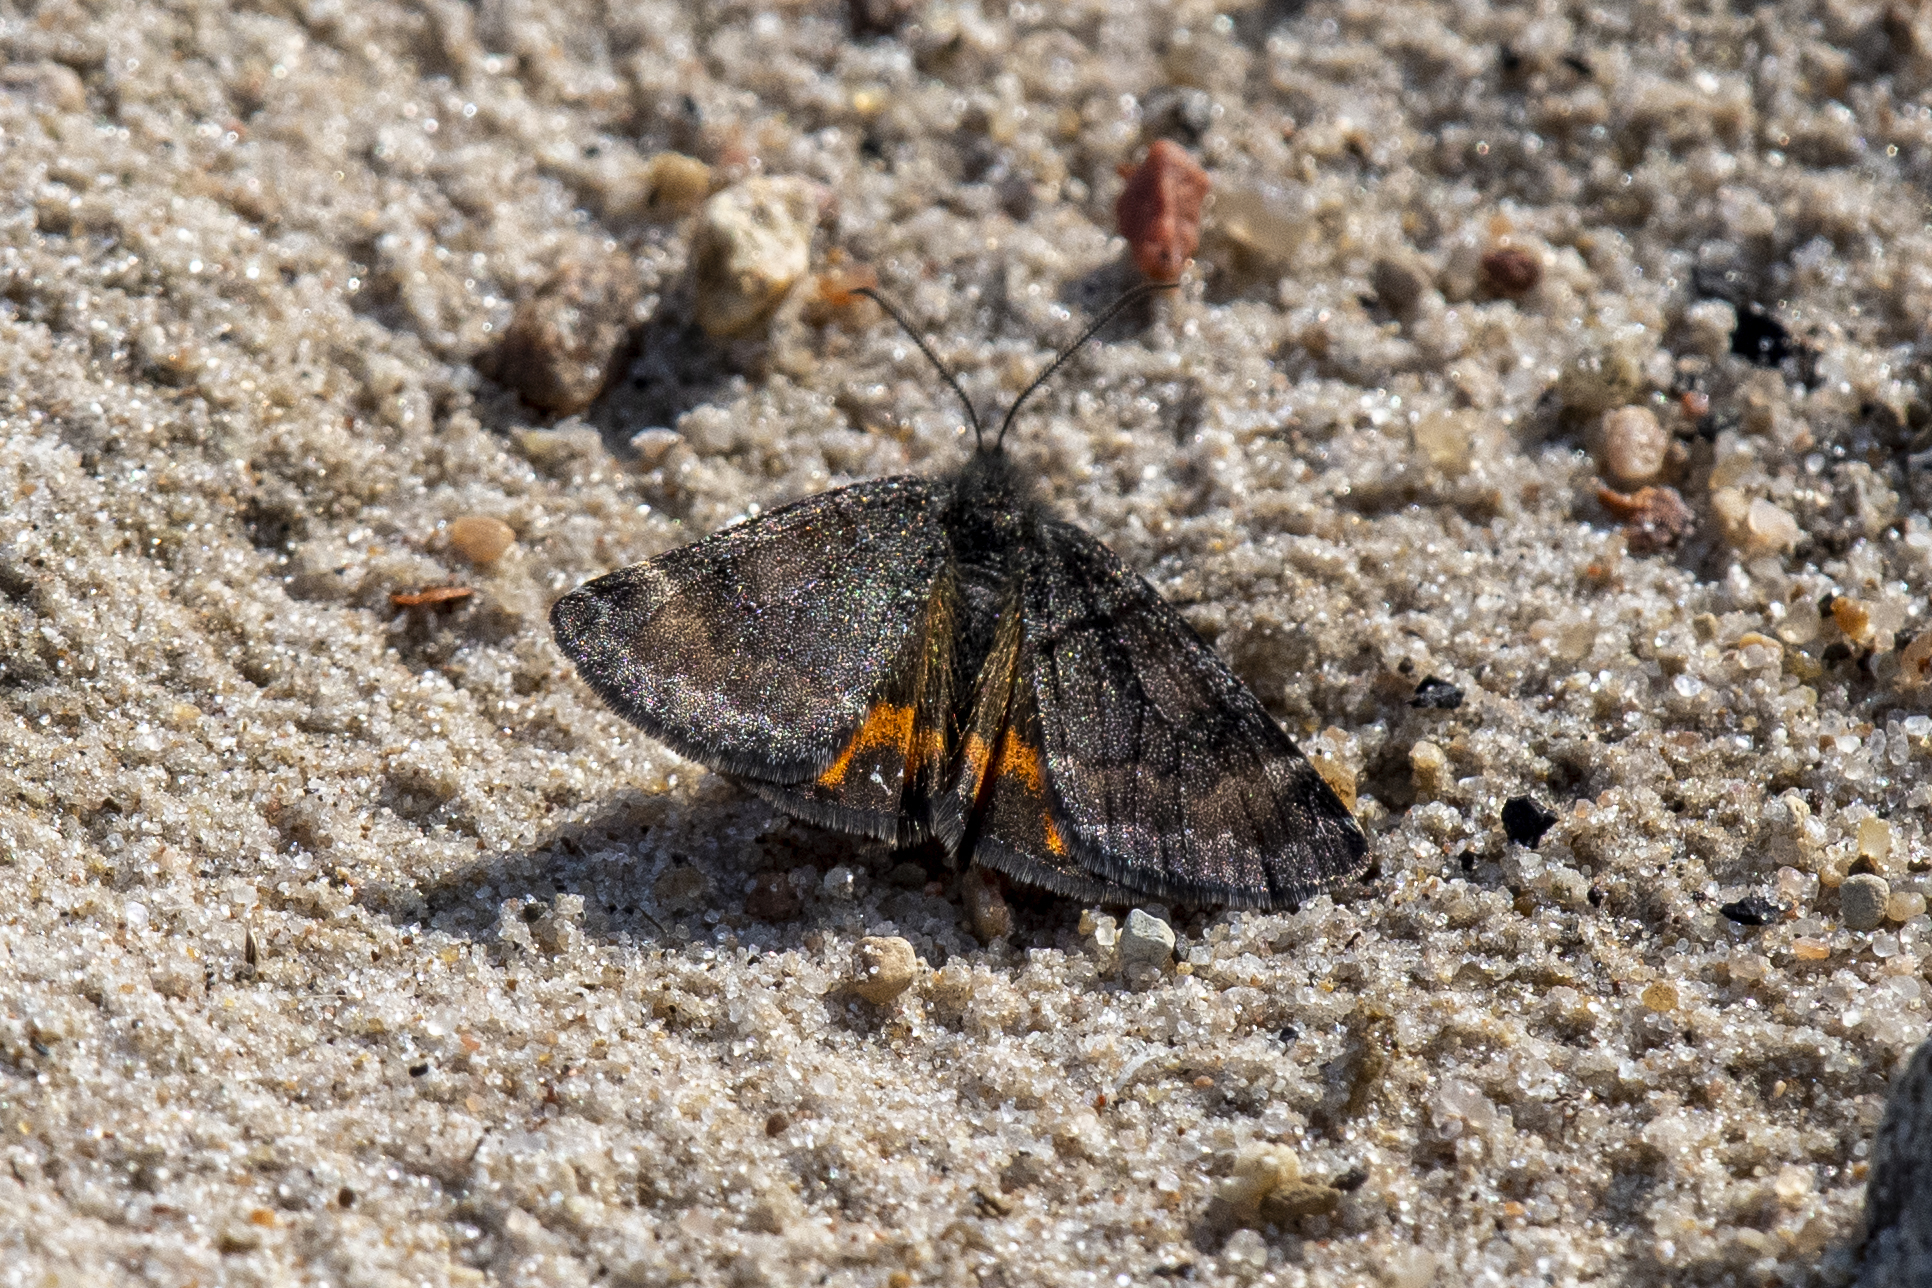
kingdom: Animalia
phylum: Arthropoda
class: Insecta
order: Lepidoptera
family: Geometridae
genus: Archiearis
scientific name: Archiearis notha
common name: Light orange underwing
